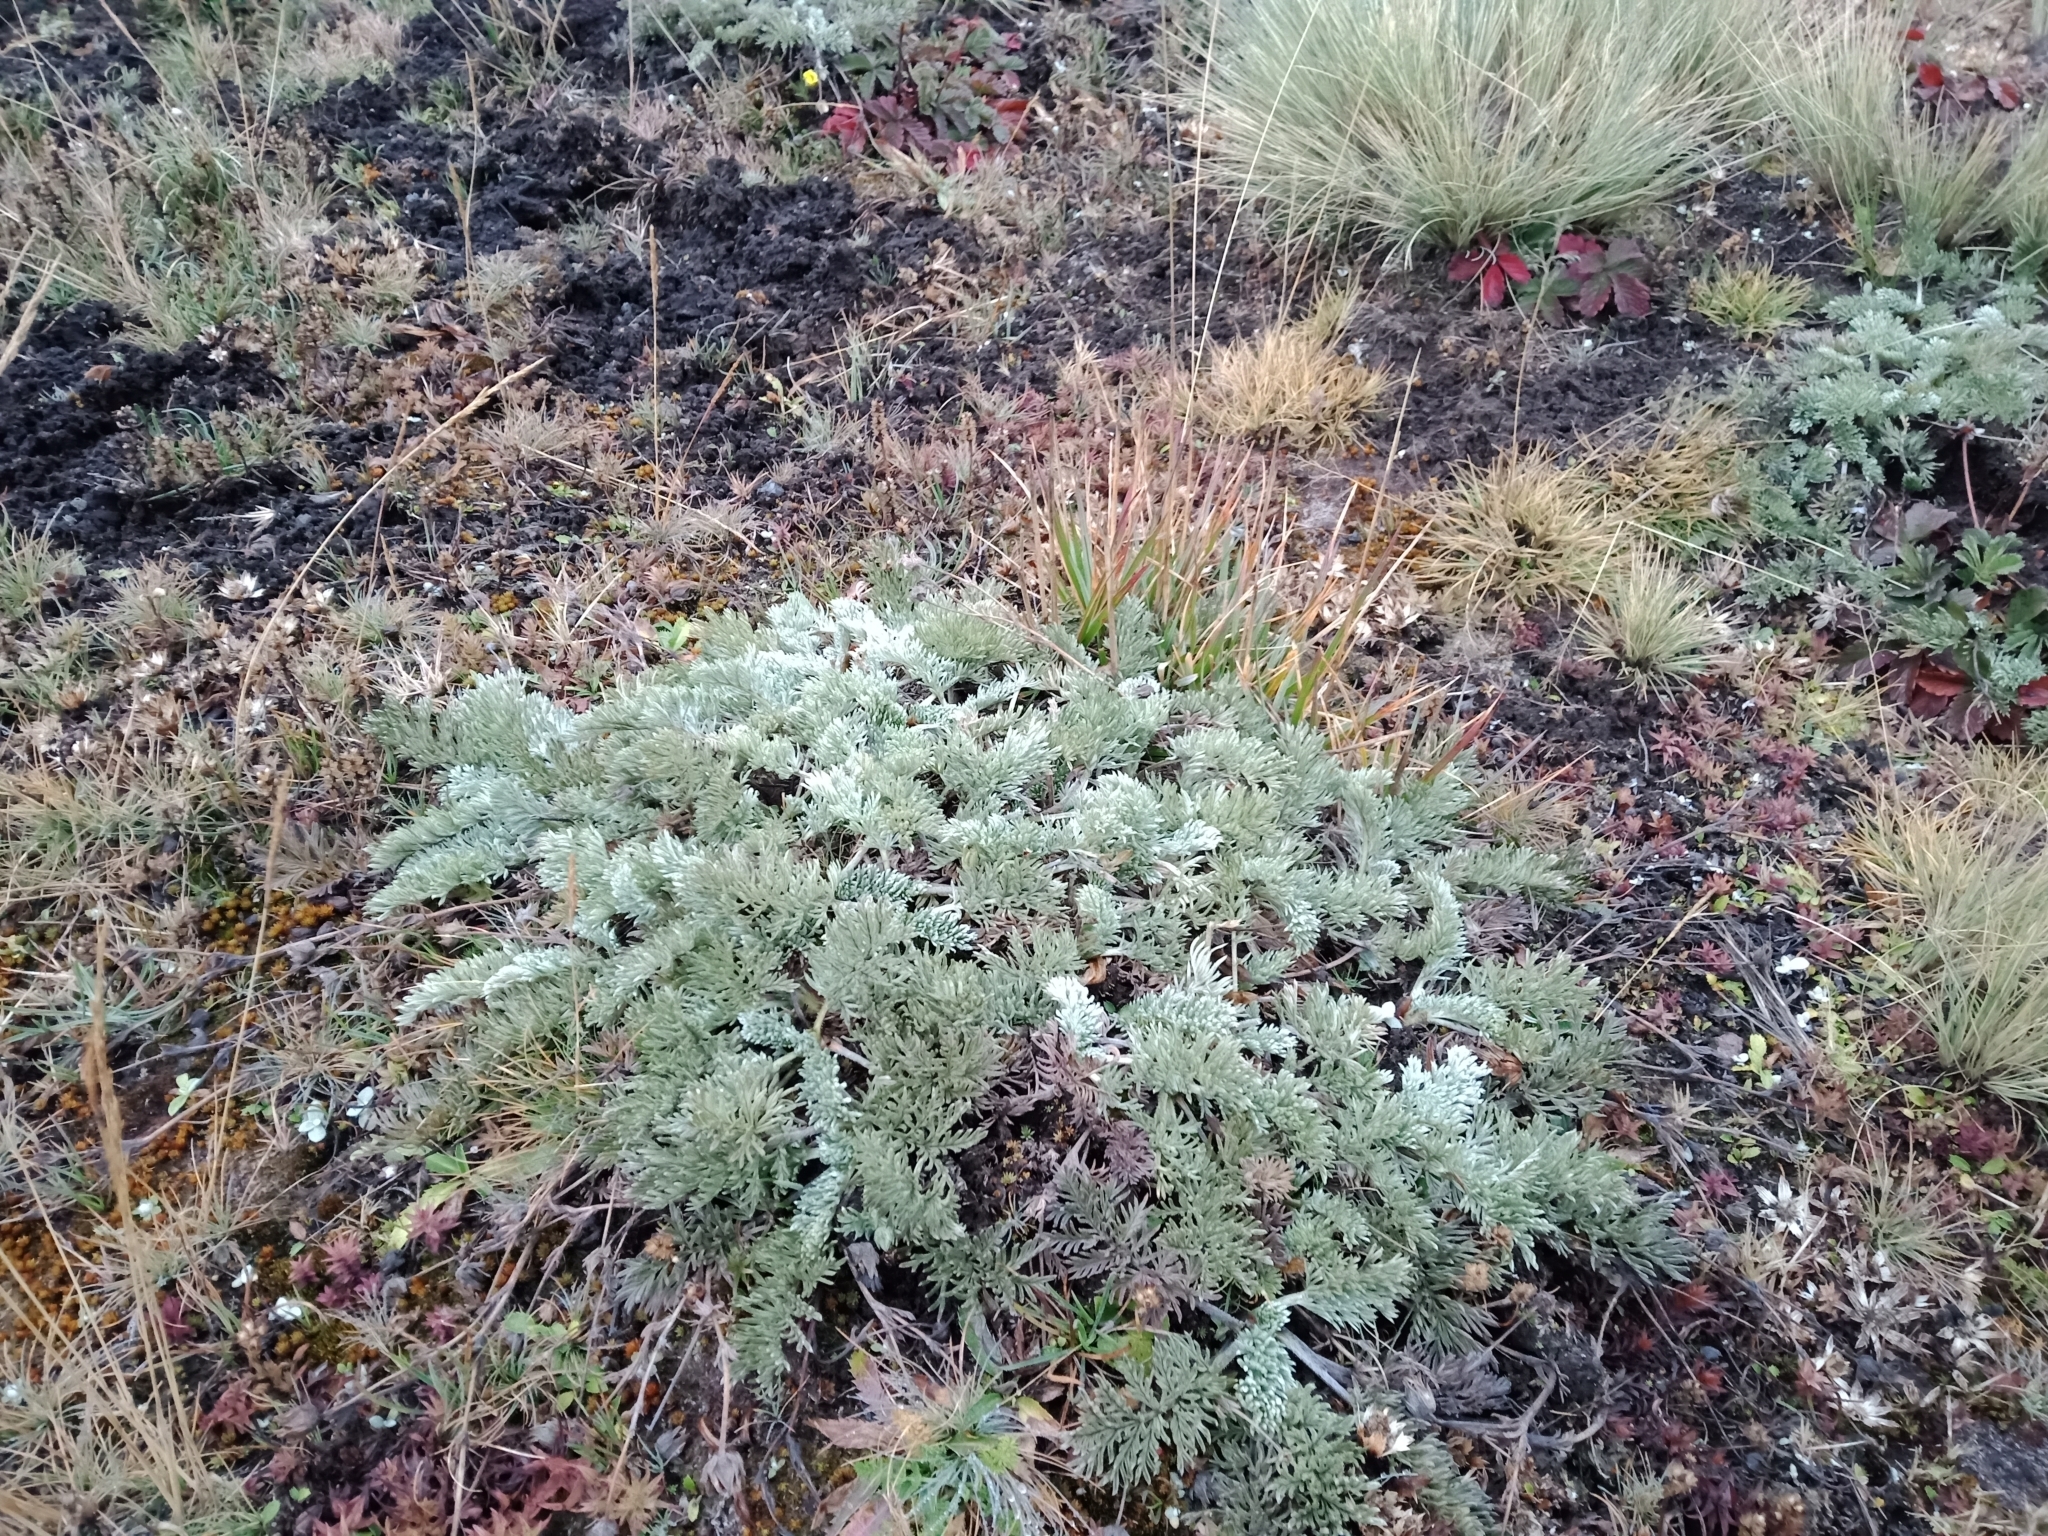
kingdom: Plantae
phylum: Tracheophyta
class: Magnoliopsida
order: Rosales
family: Rosaceae
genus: Potentilla
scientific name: Potentilla candicans
